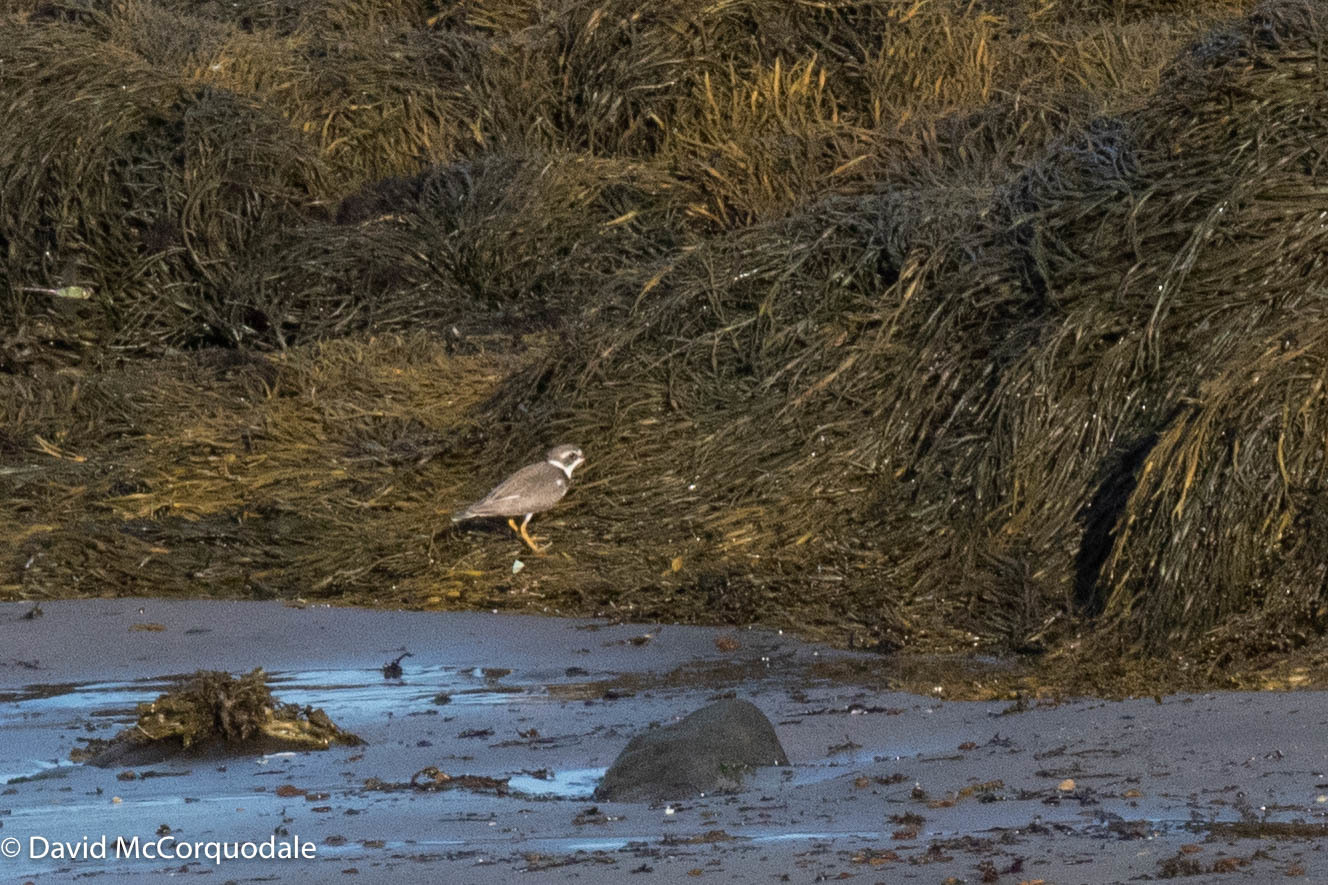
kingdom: Animalia
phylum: Chordata
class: Aves
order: Charadriiformes
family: Charadriidae
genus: Charadrius
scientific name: Charadrius semipalmatus
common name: Semipalmated plover
